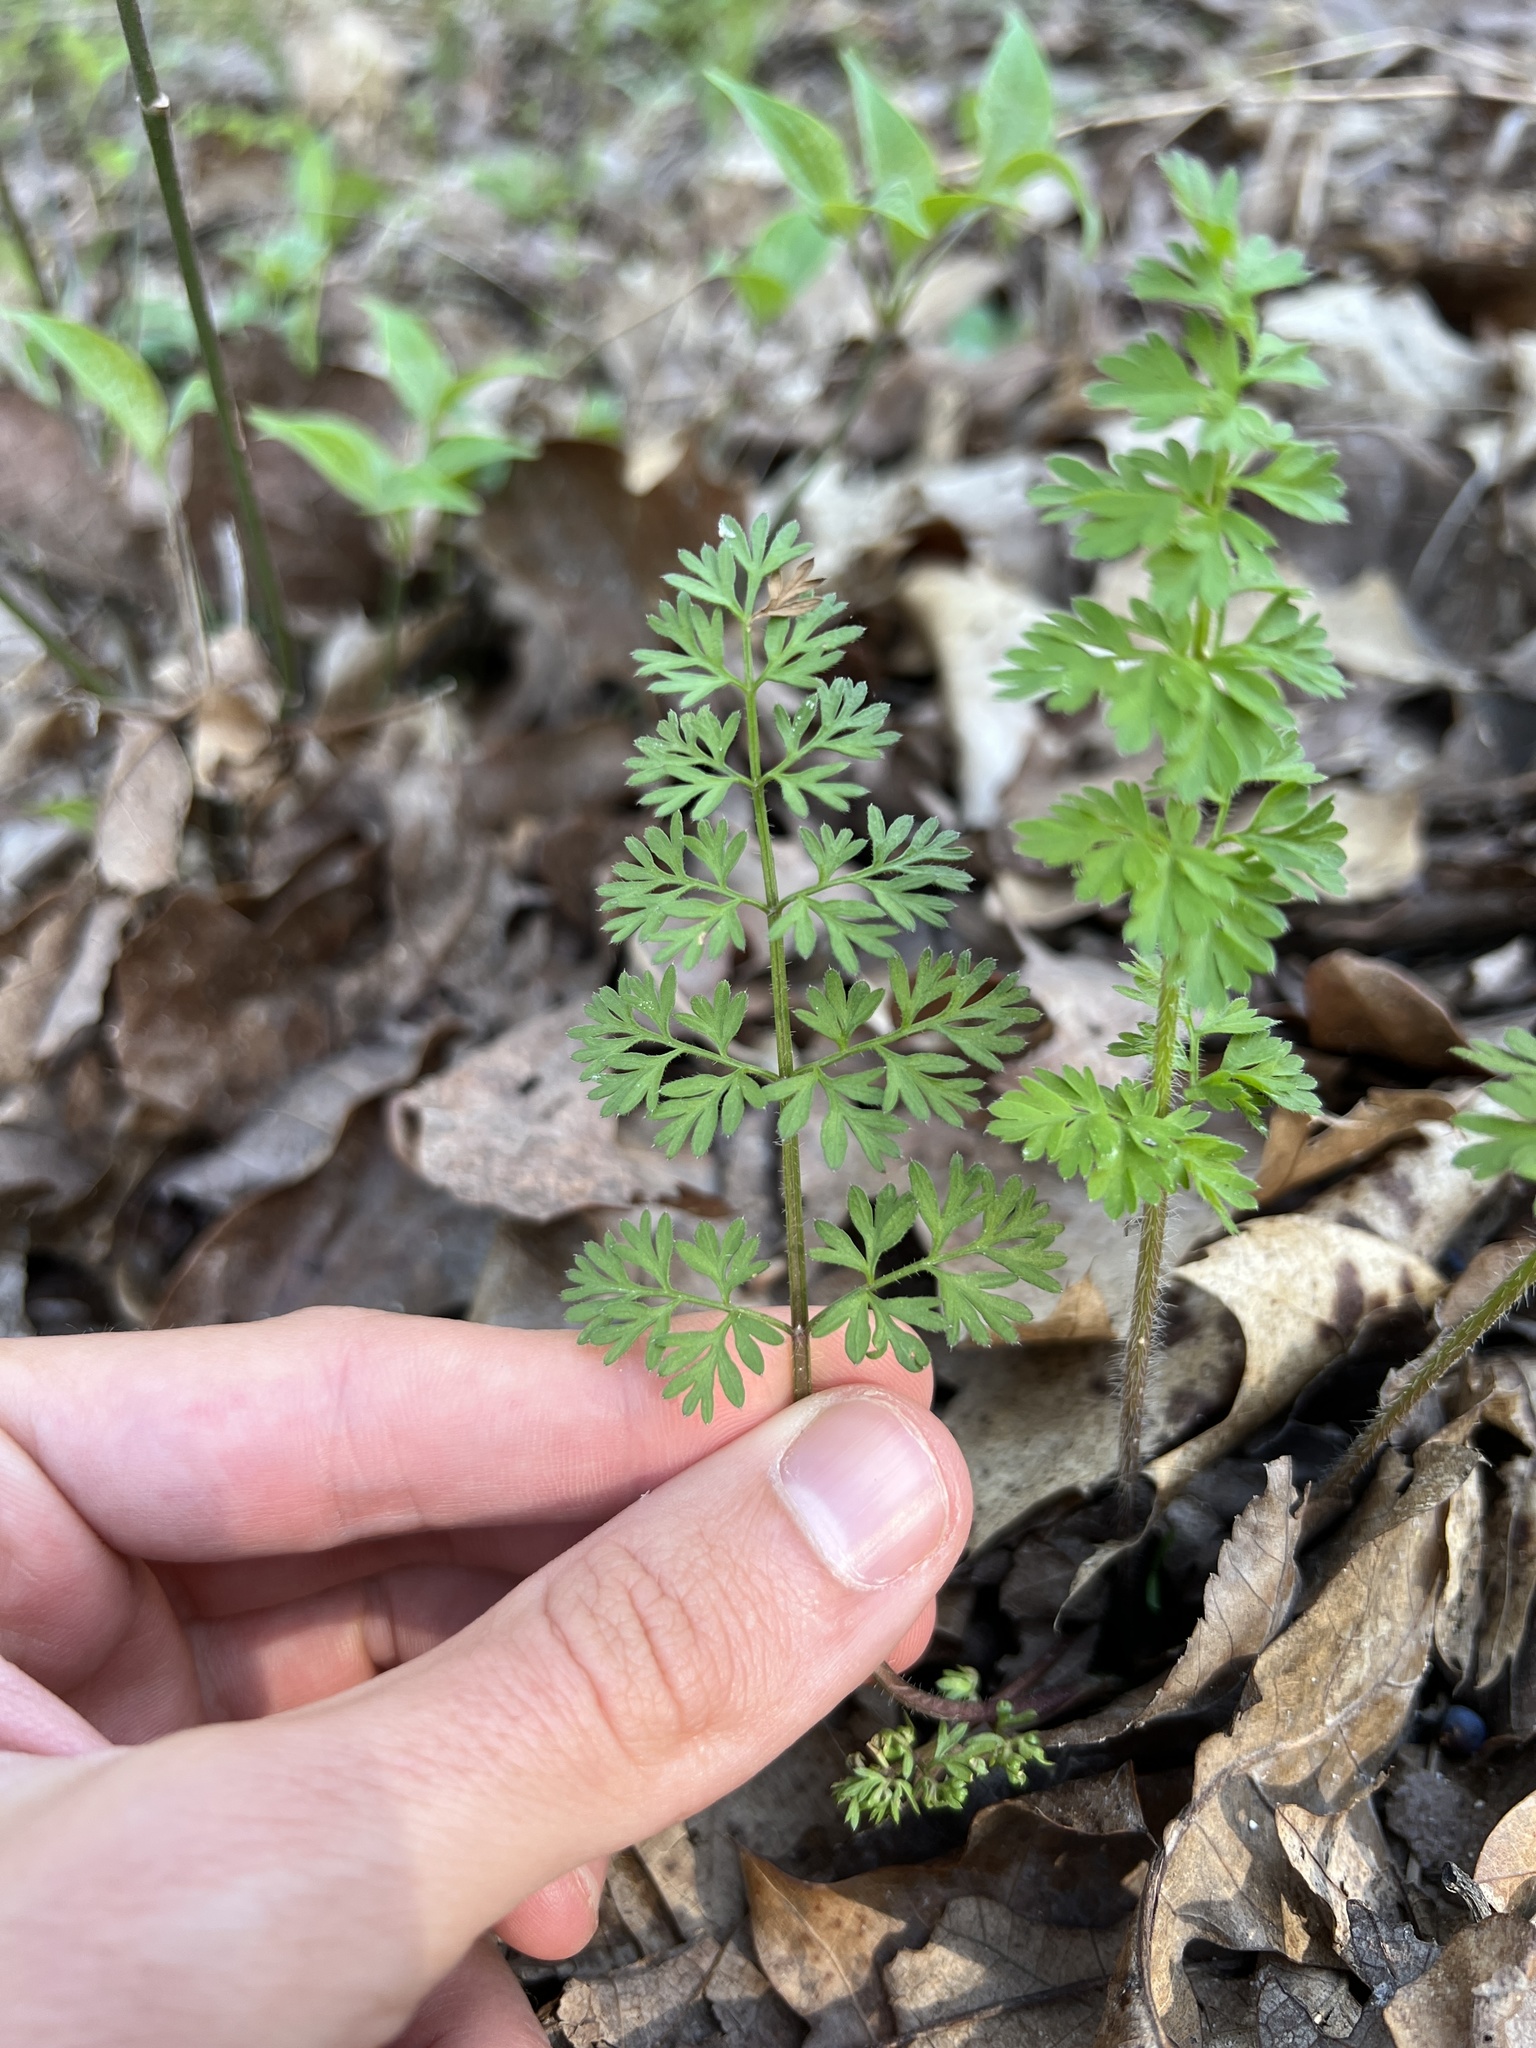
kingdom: Plantae
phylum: Tracheophyta
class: Magnoliopsida
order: Apiales
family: Apiaceae
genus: Daucus
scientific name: Daucus carota
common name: Wild carrot
